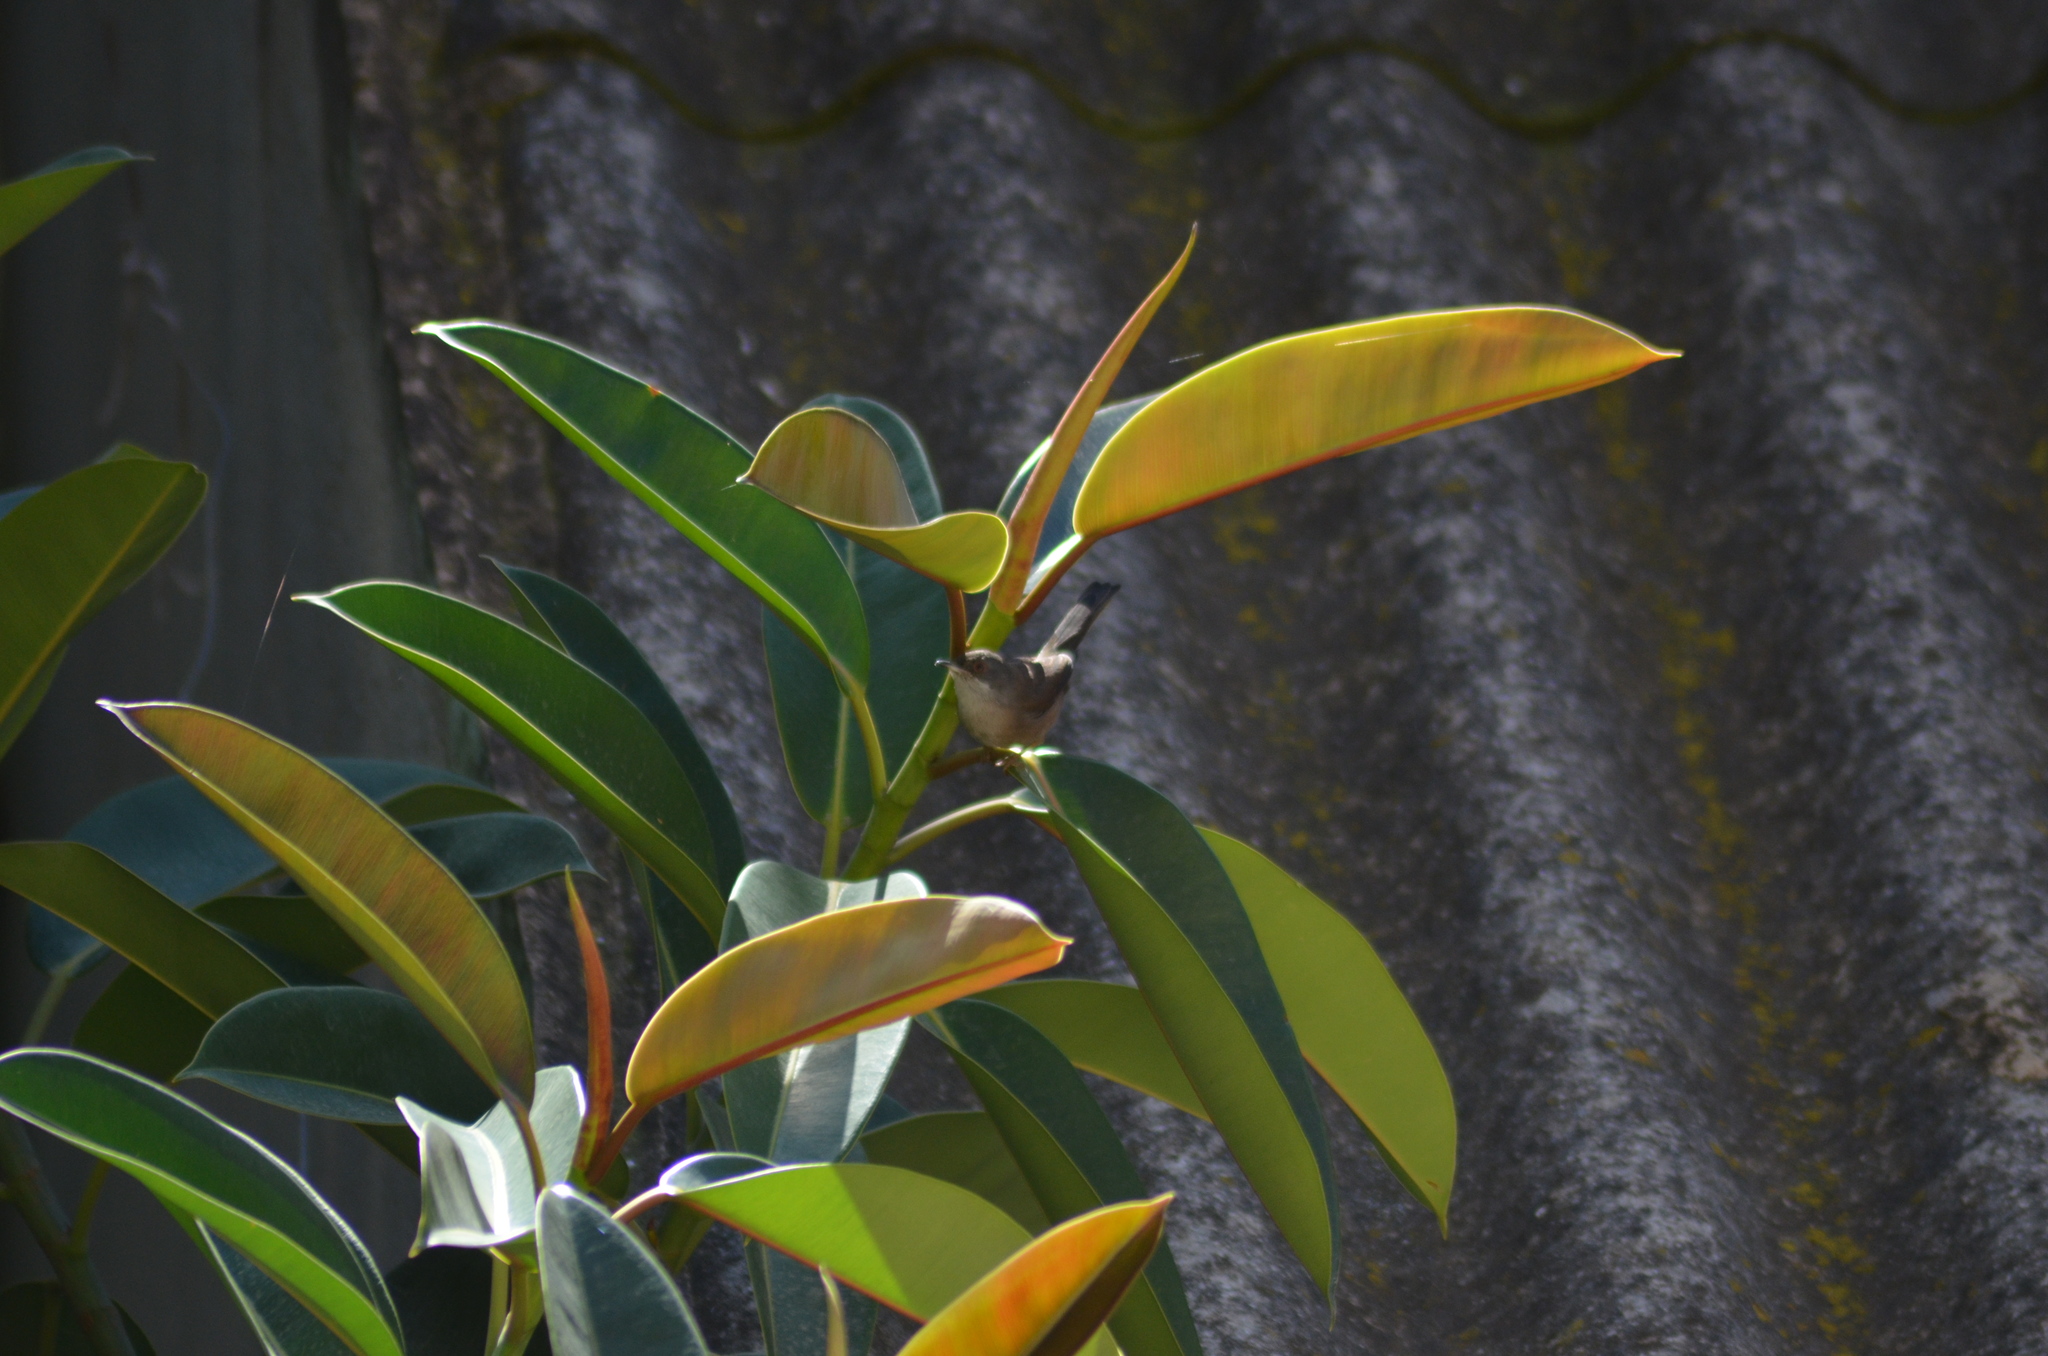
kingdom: Animalia
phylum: Chordata
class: Aves
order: Passeriformes
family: Sylviidae
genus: Curruca
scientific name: Curruca melanocephala
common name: Sardinian warbler
